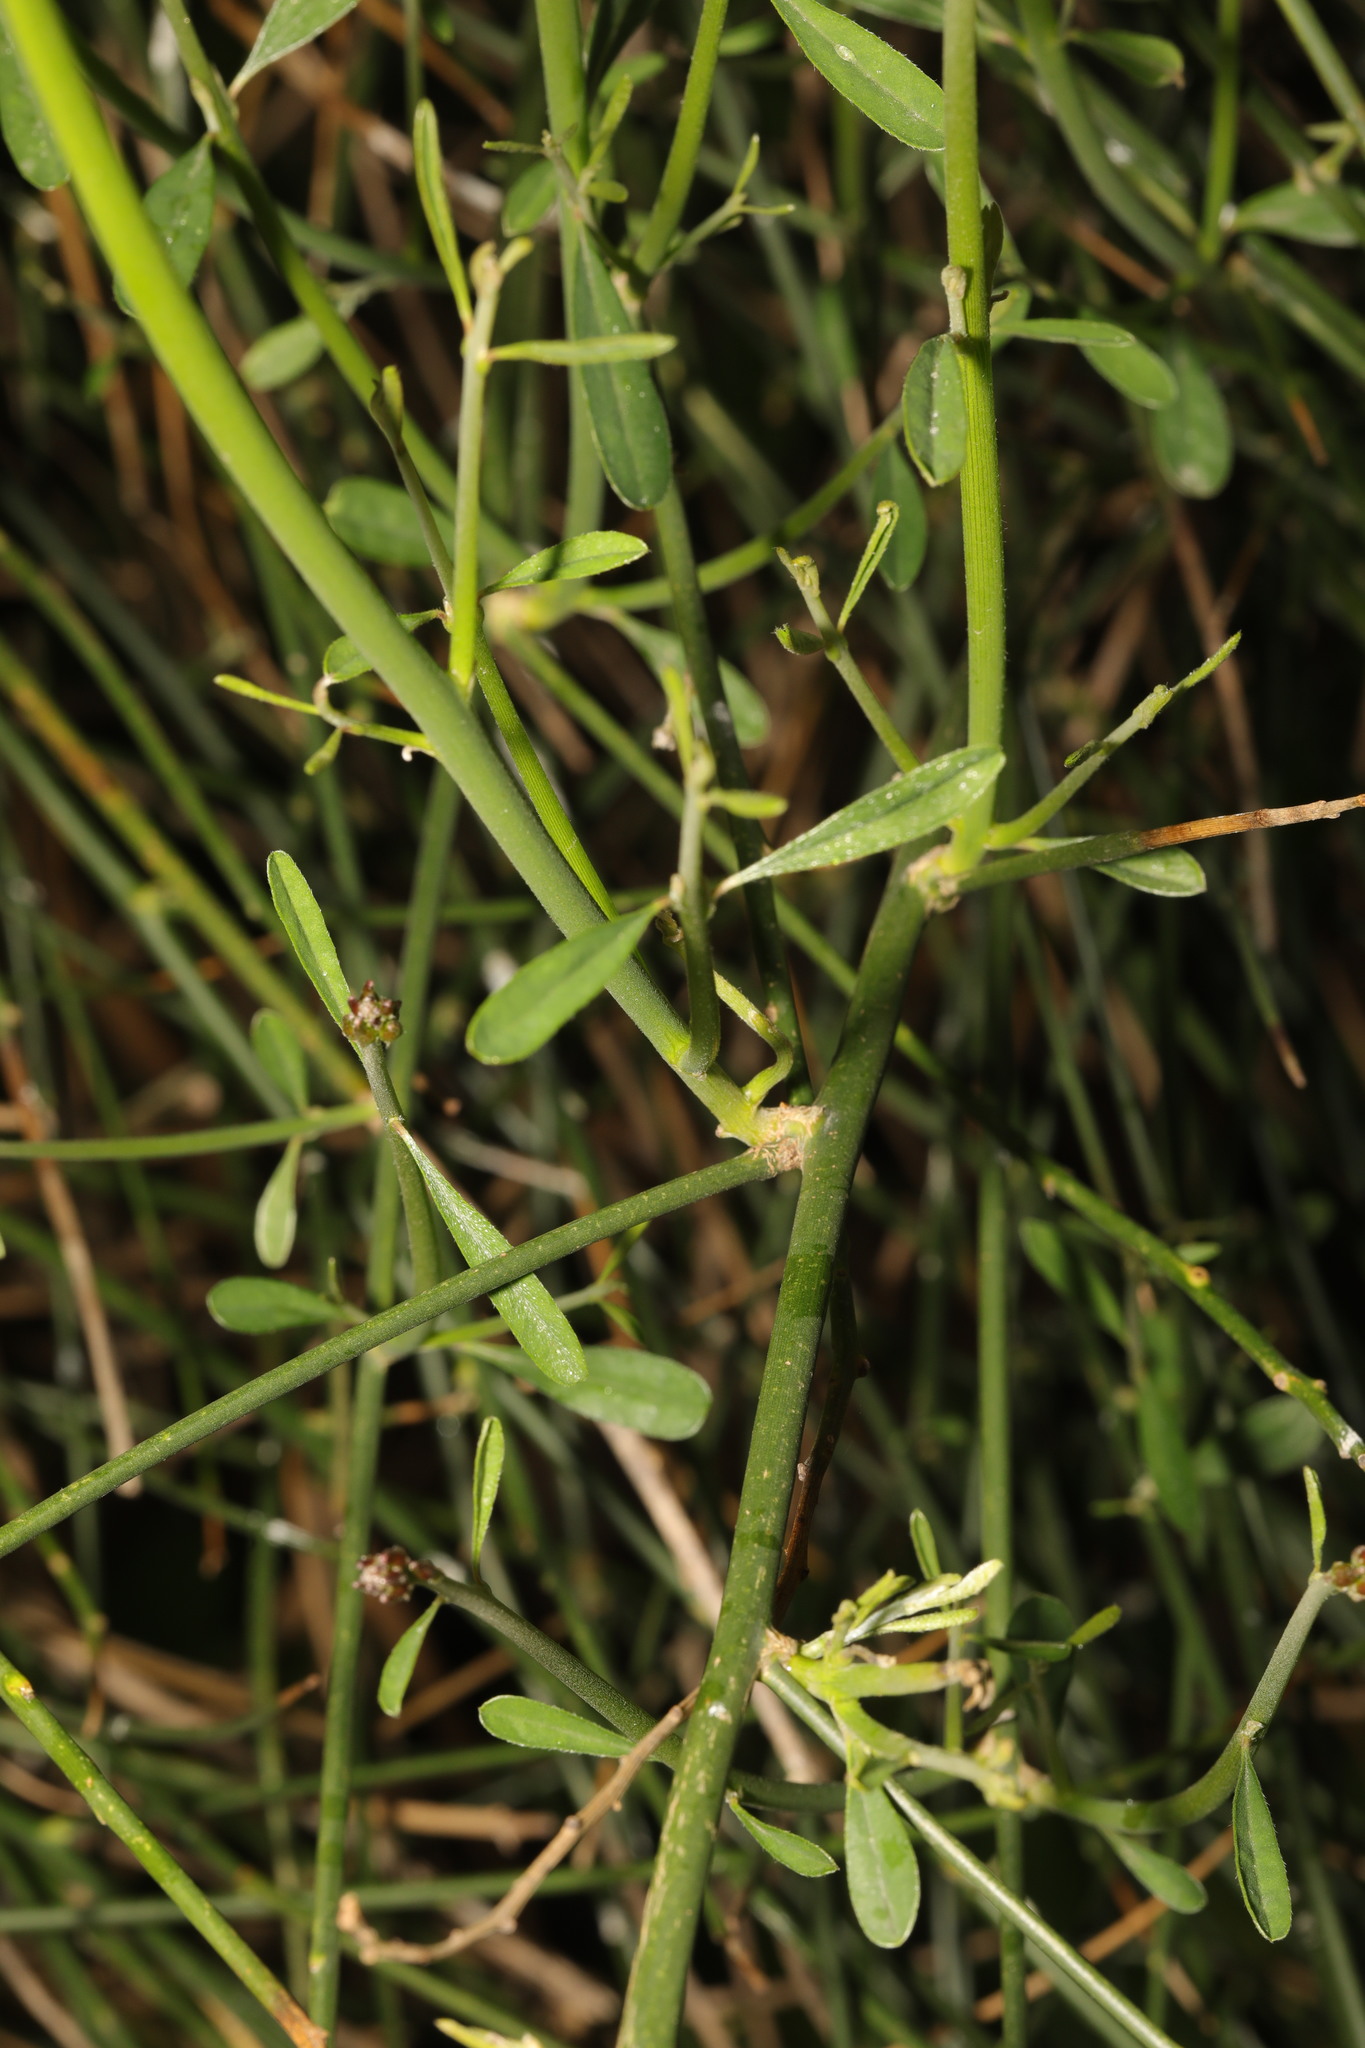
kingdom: Plantae
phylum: Tracheophyta
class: Magnoliopsida
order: Fabales
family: Fabaceae
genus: Spartium
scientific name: Spartium junceum
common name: Spanish broom
